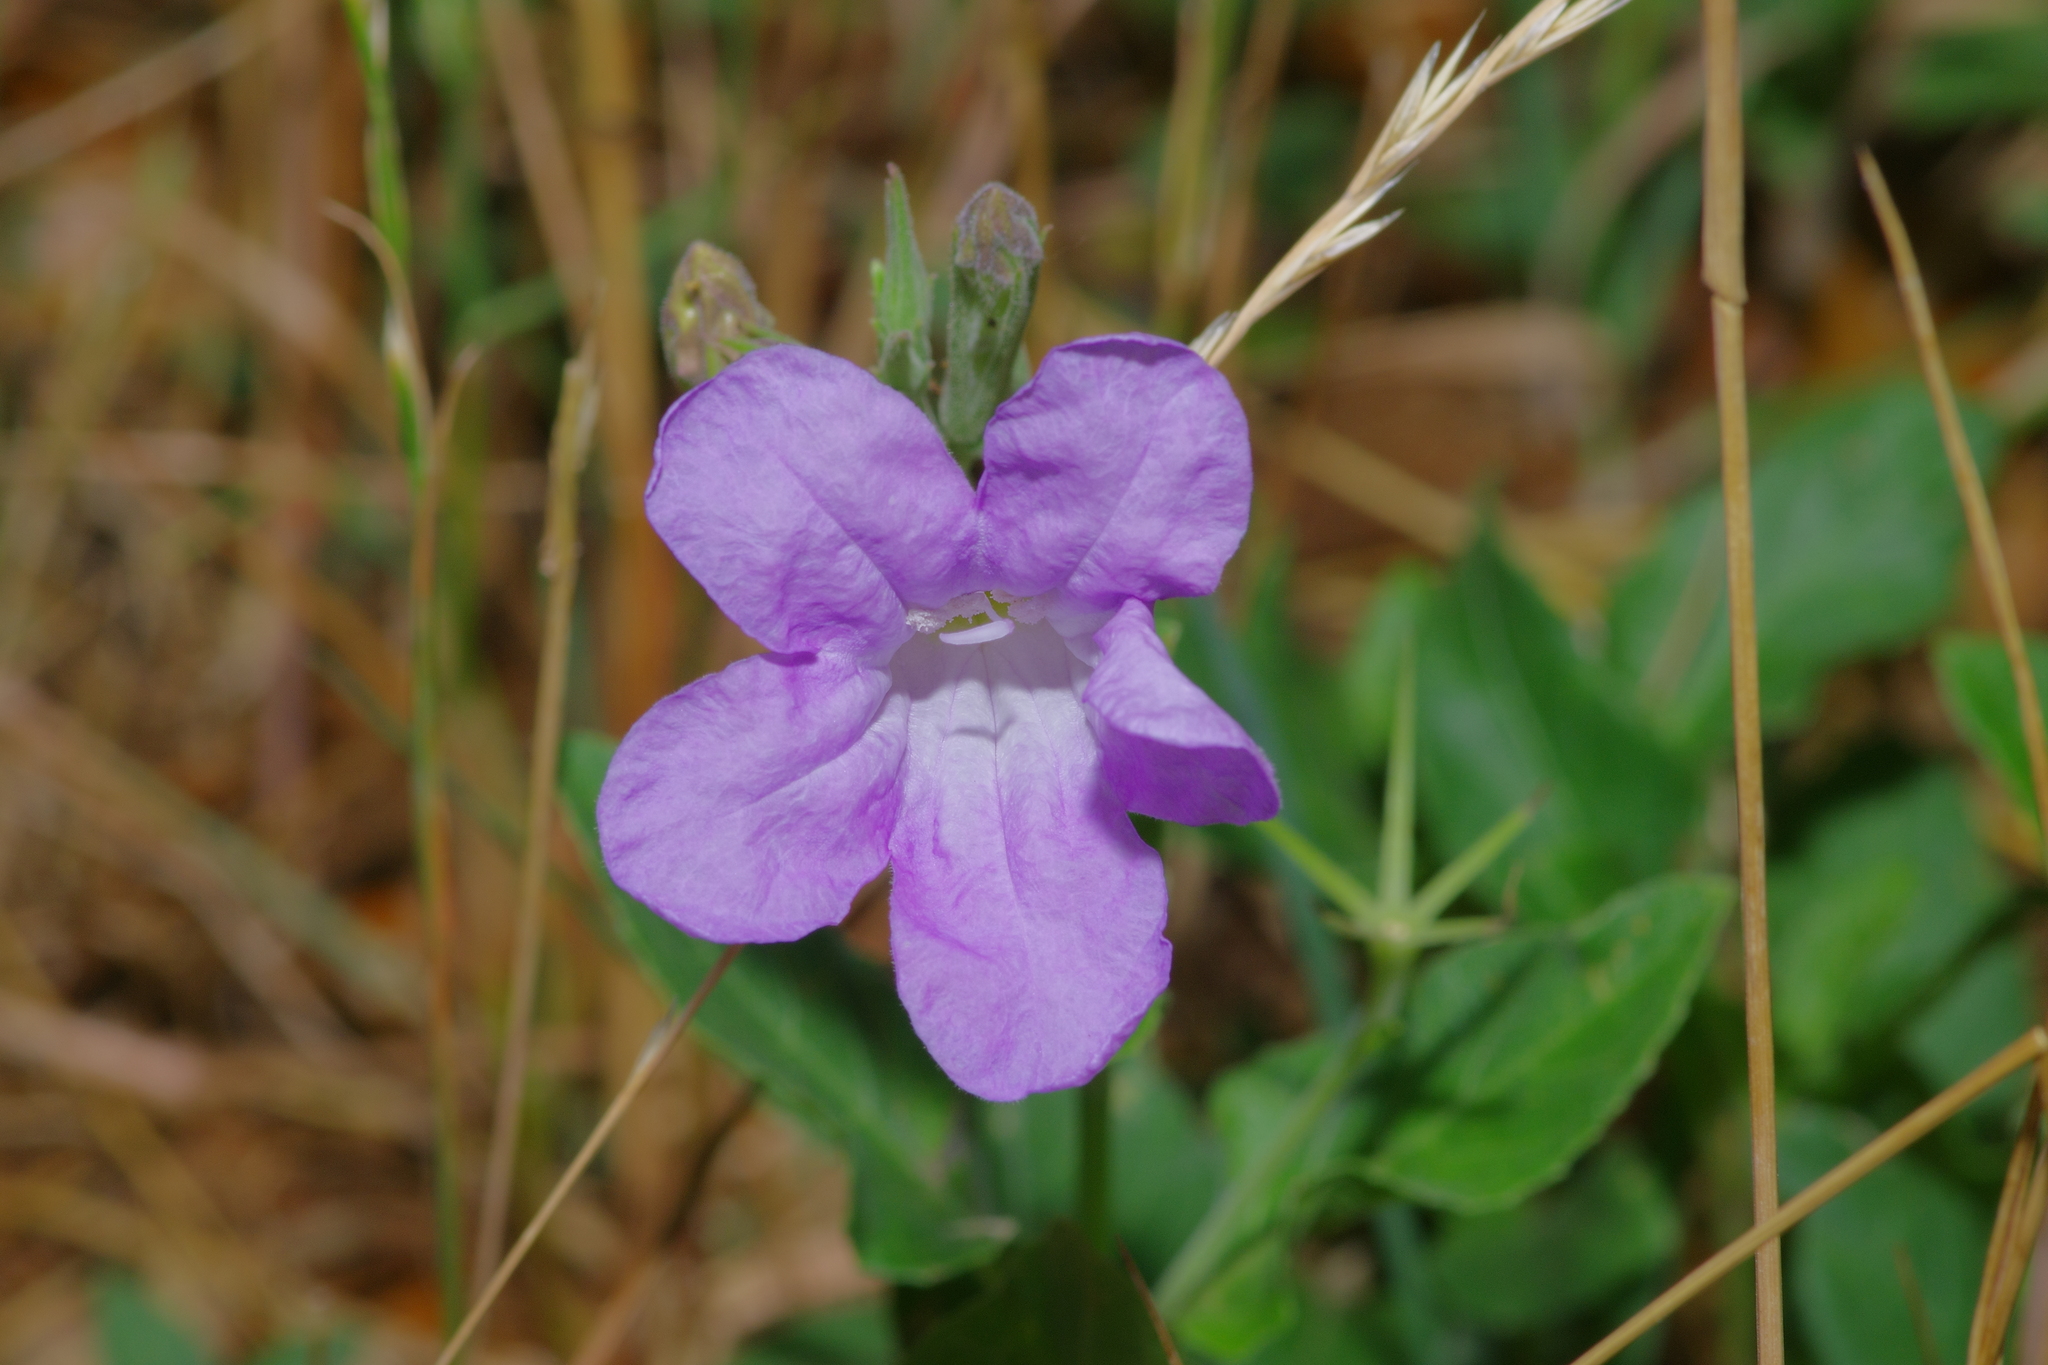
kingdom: Plantae
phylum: Tracheophyta
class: Magnoliopsida
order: Lamiales
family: Acanthaceae
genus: Ruellia
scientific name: Ruellia ciliatiflora
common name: Hairyflower wild petunia
